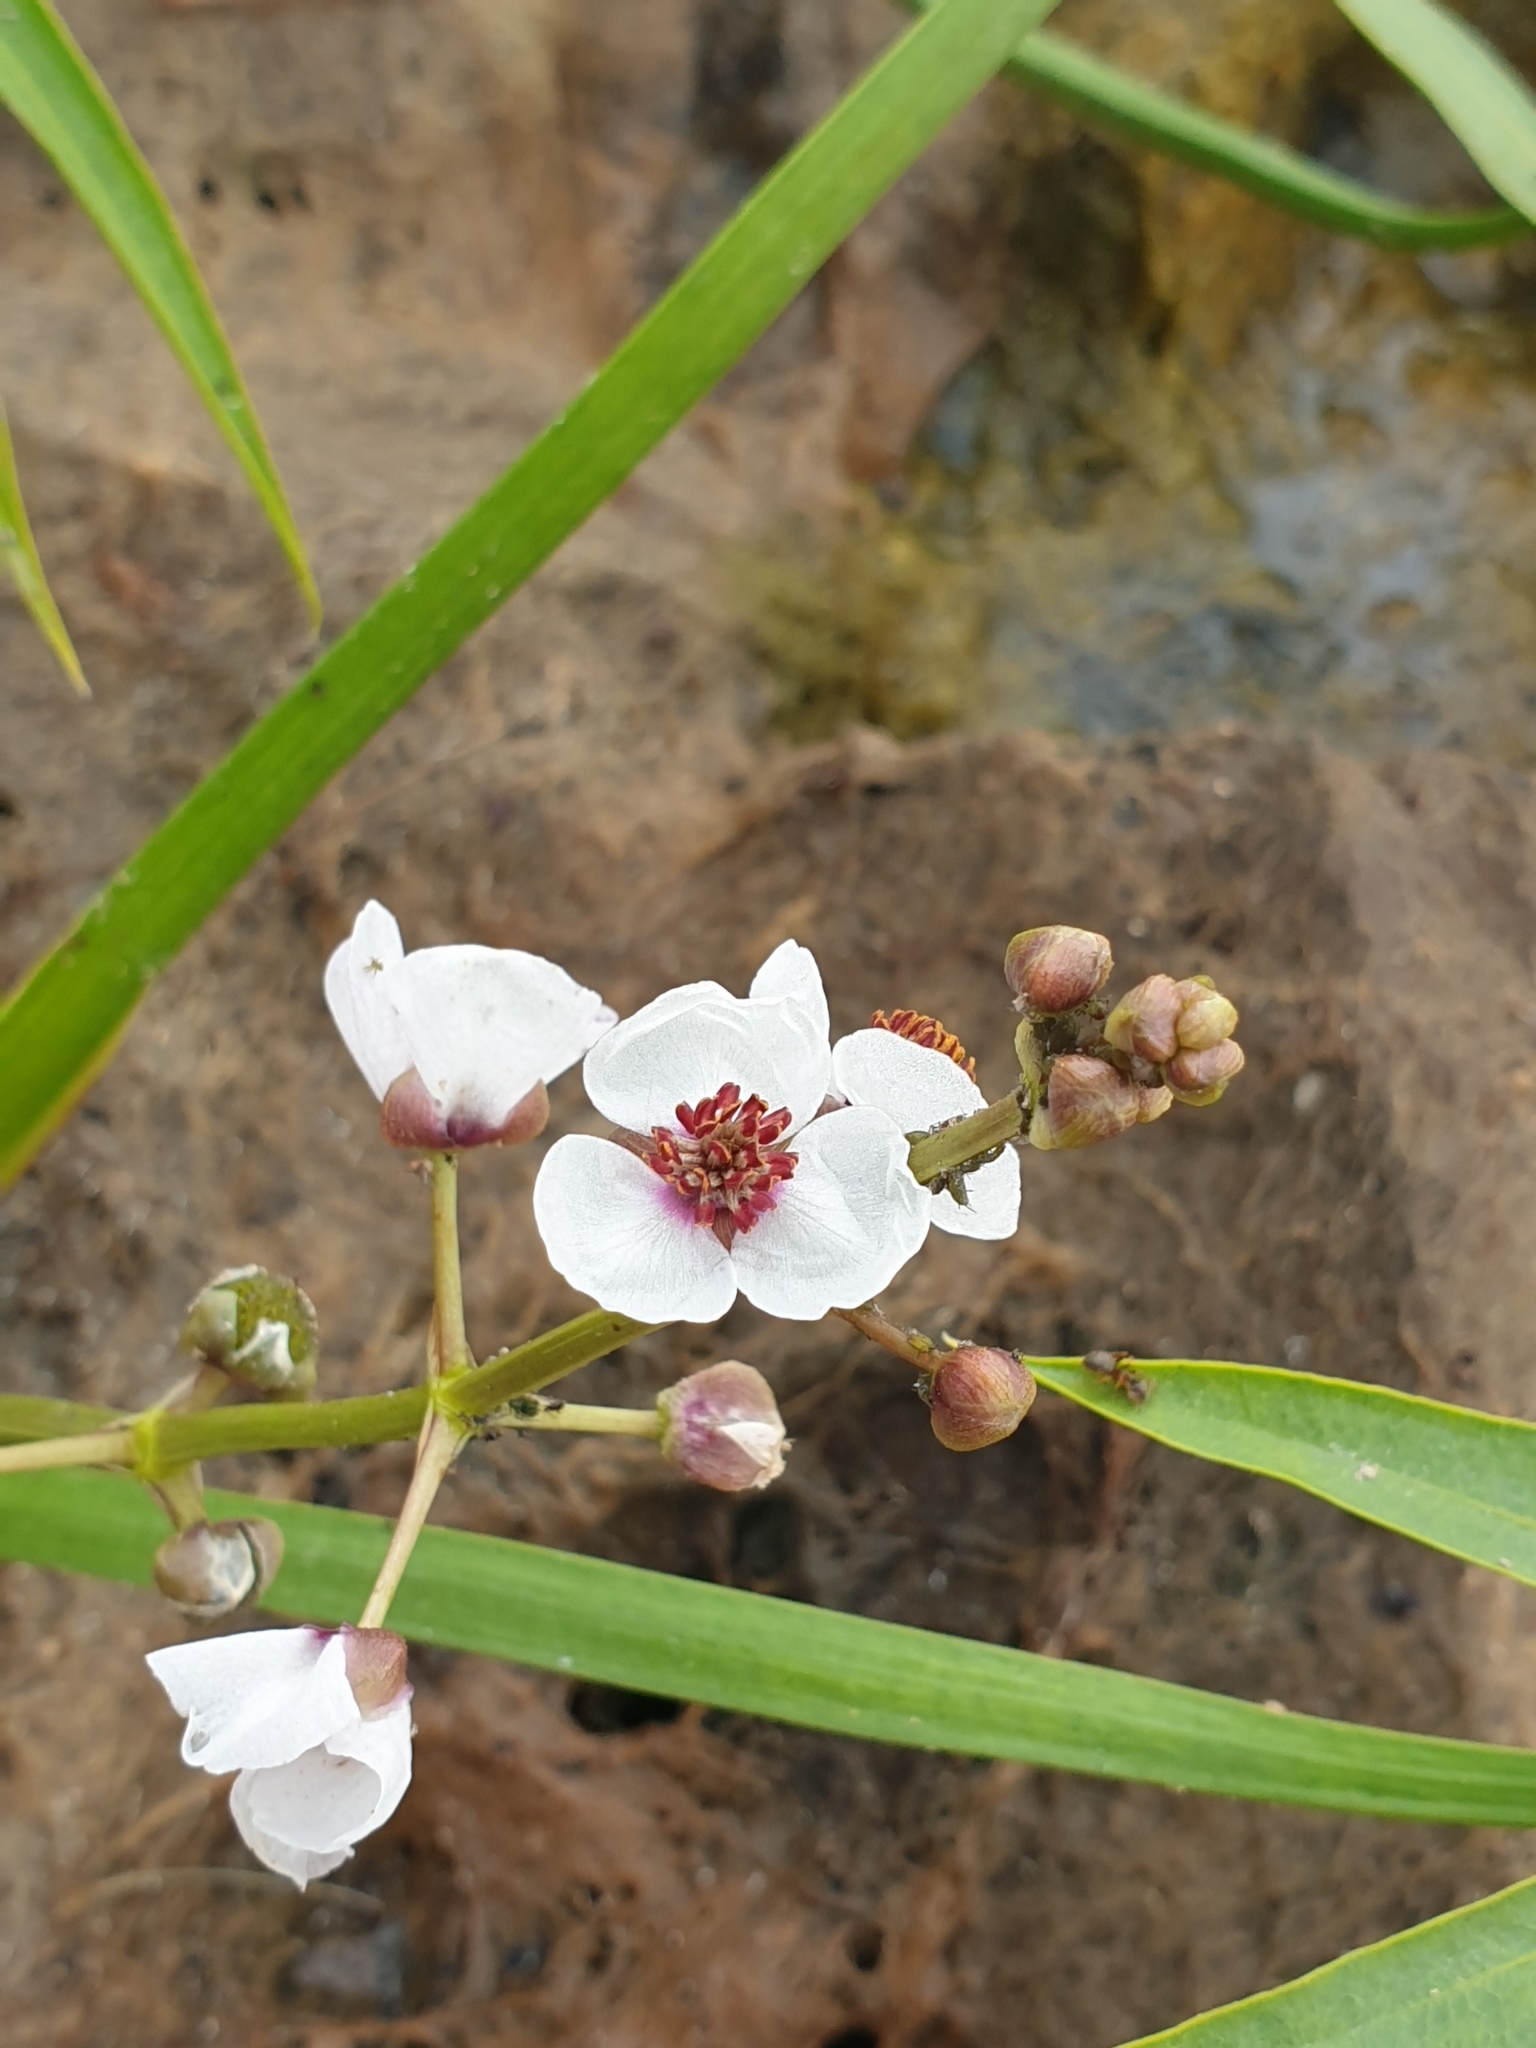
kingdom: Plantae
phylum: Tracheophyta
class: Liliopsida
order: Alismatales
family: Alismataceae
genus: Sagittaria
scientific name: Sagittaria sagittifolia
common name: Arrowhead
